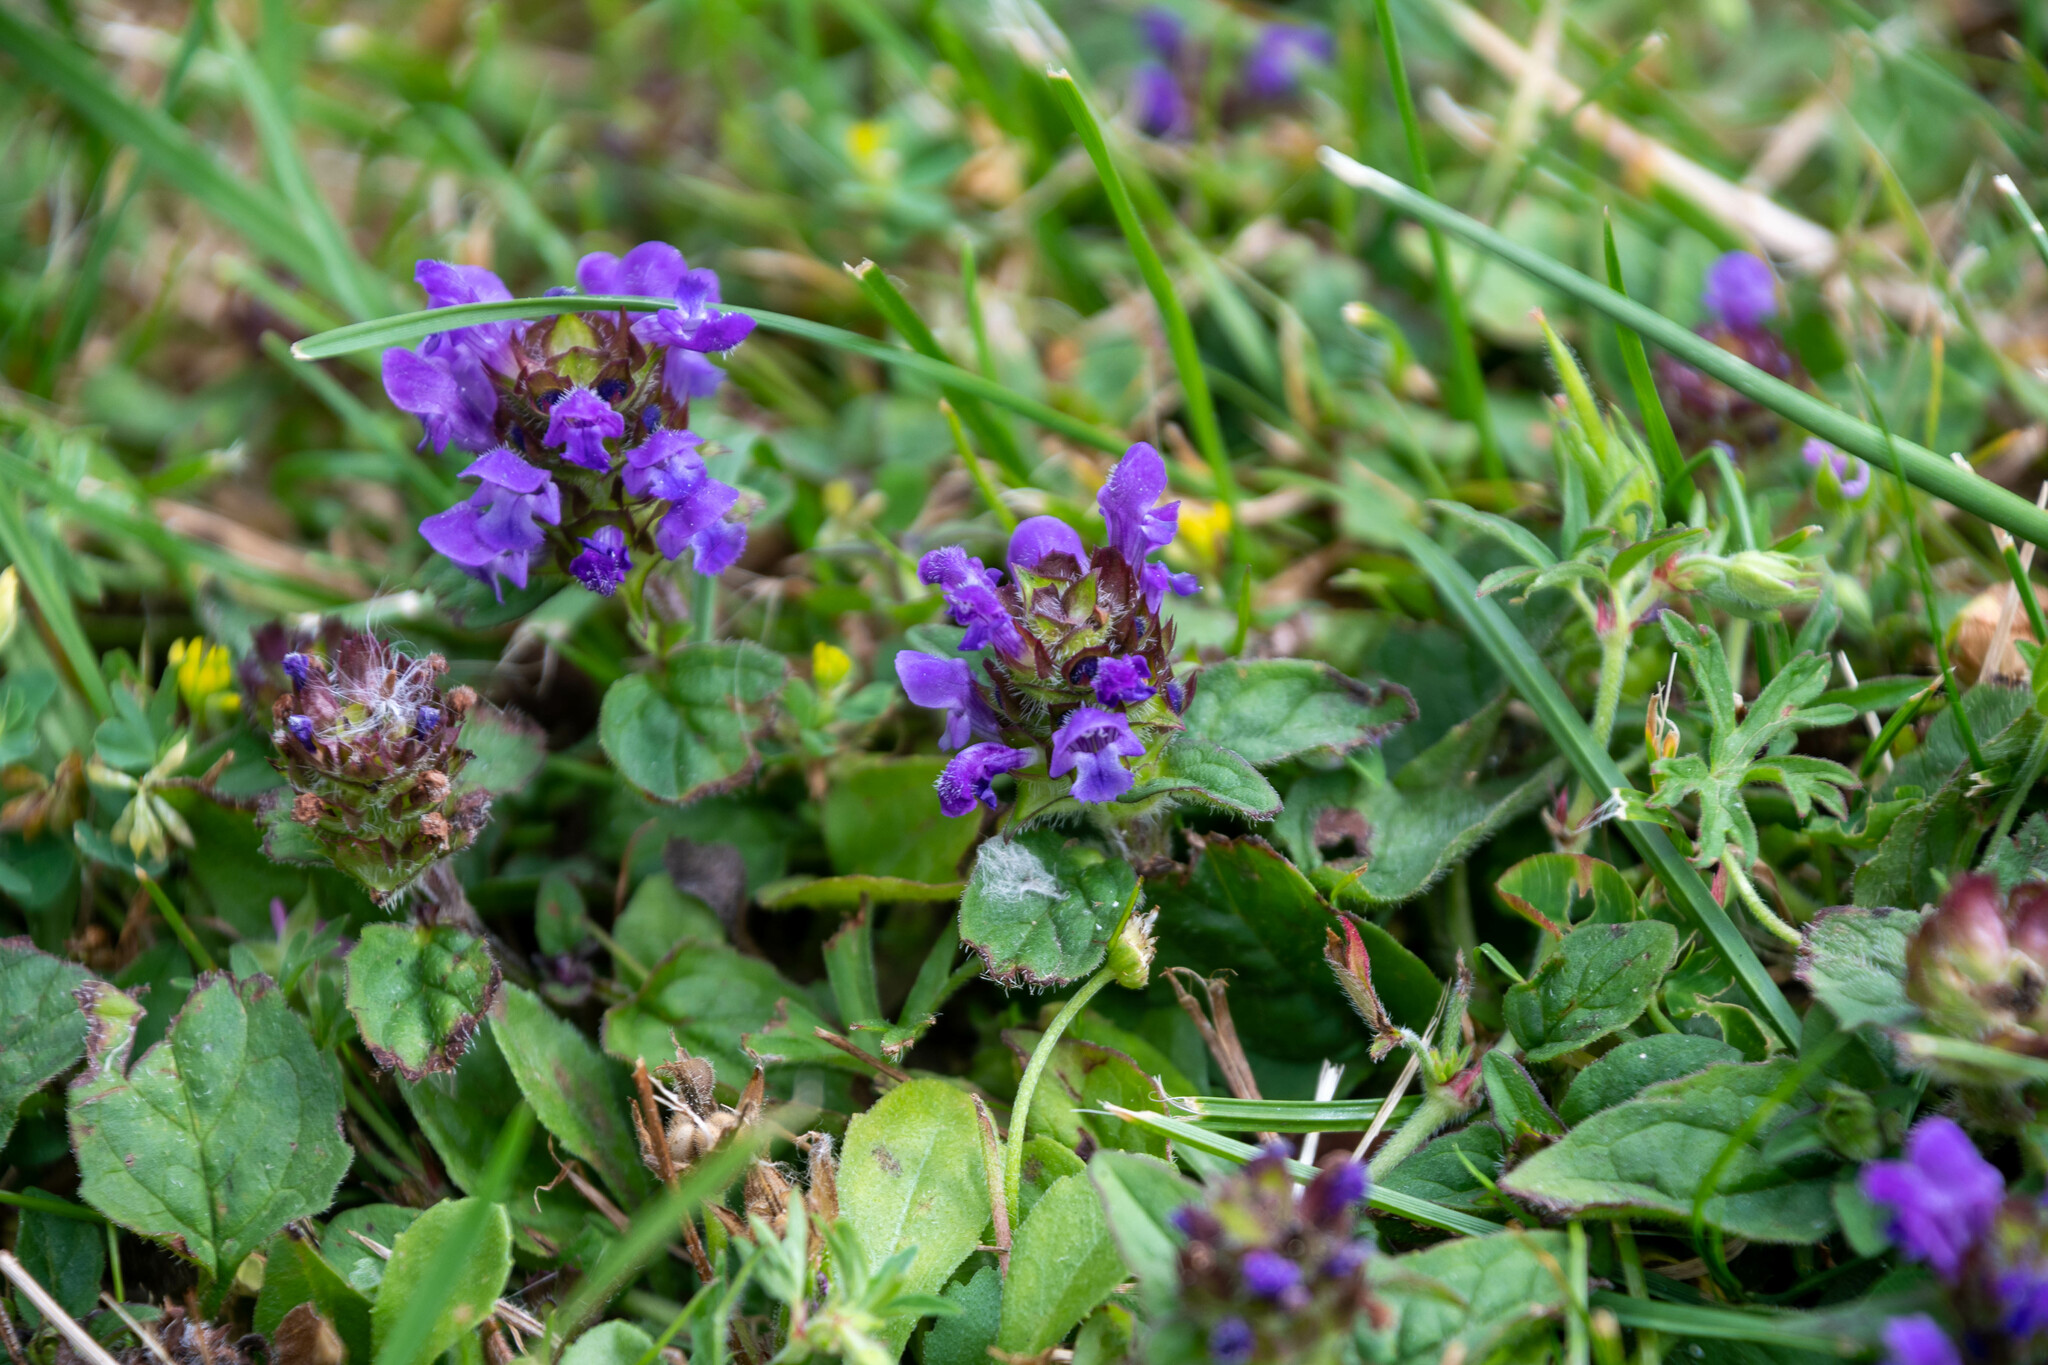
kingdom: Plantae
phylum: Tracheophyta
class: Magnoliopsida
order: Lamiales
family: Lamiaceae
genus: Prunella
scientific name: Prunella vulgaris
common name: Heal-all
